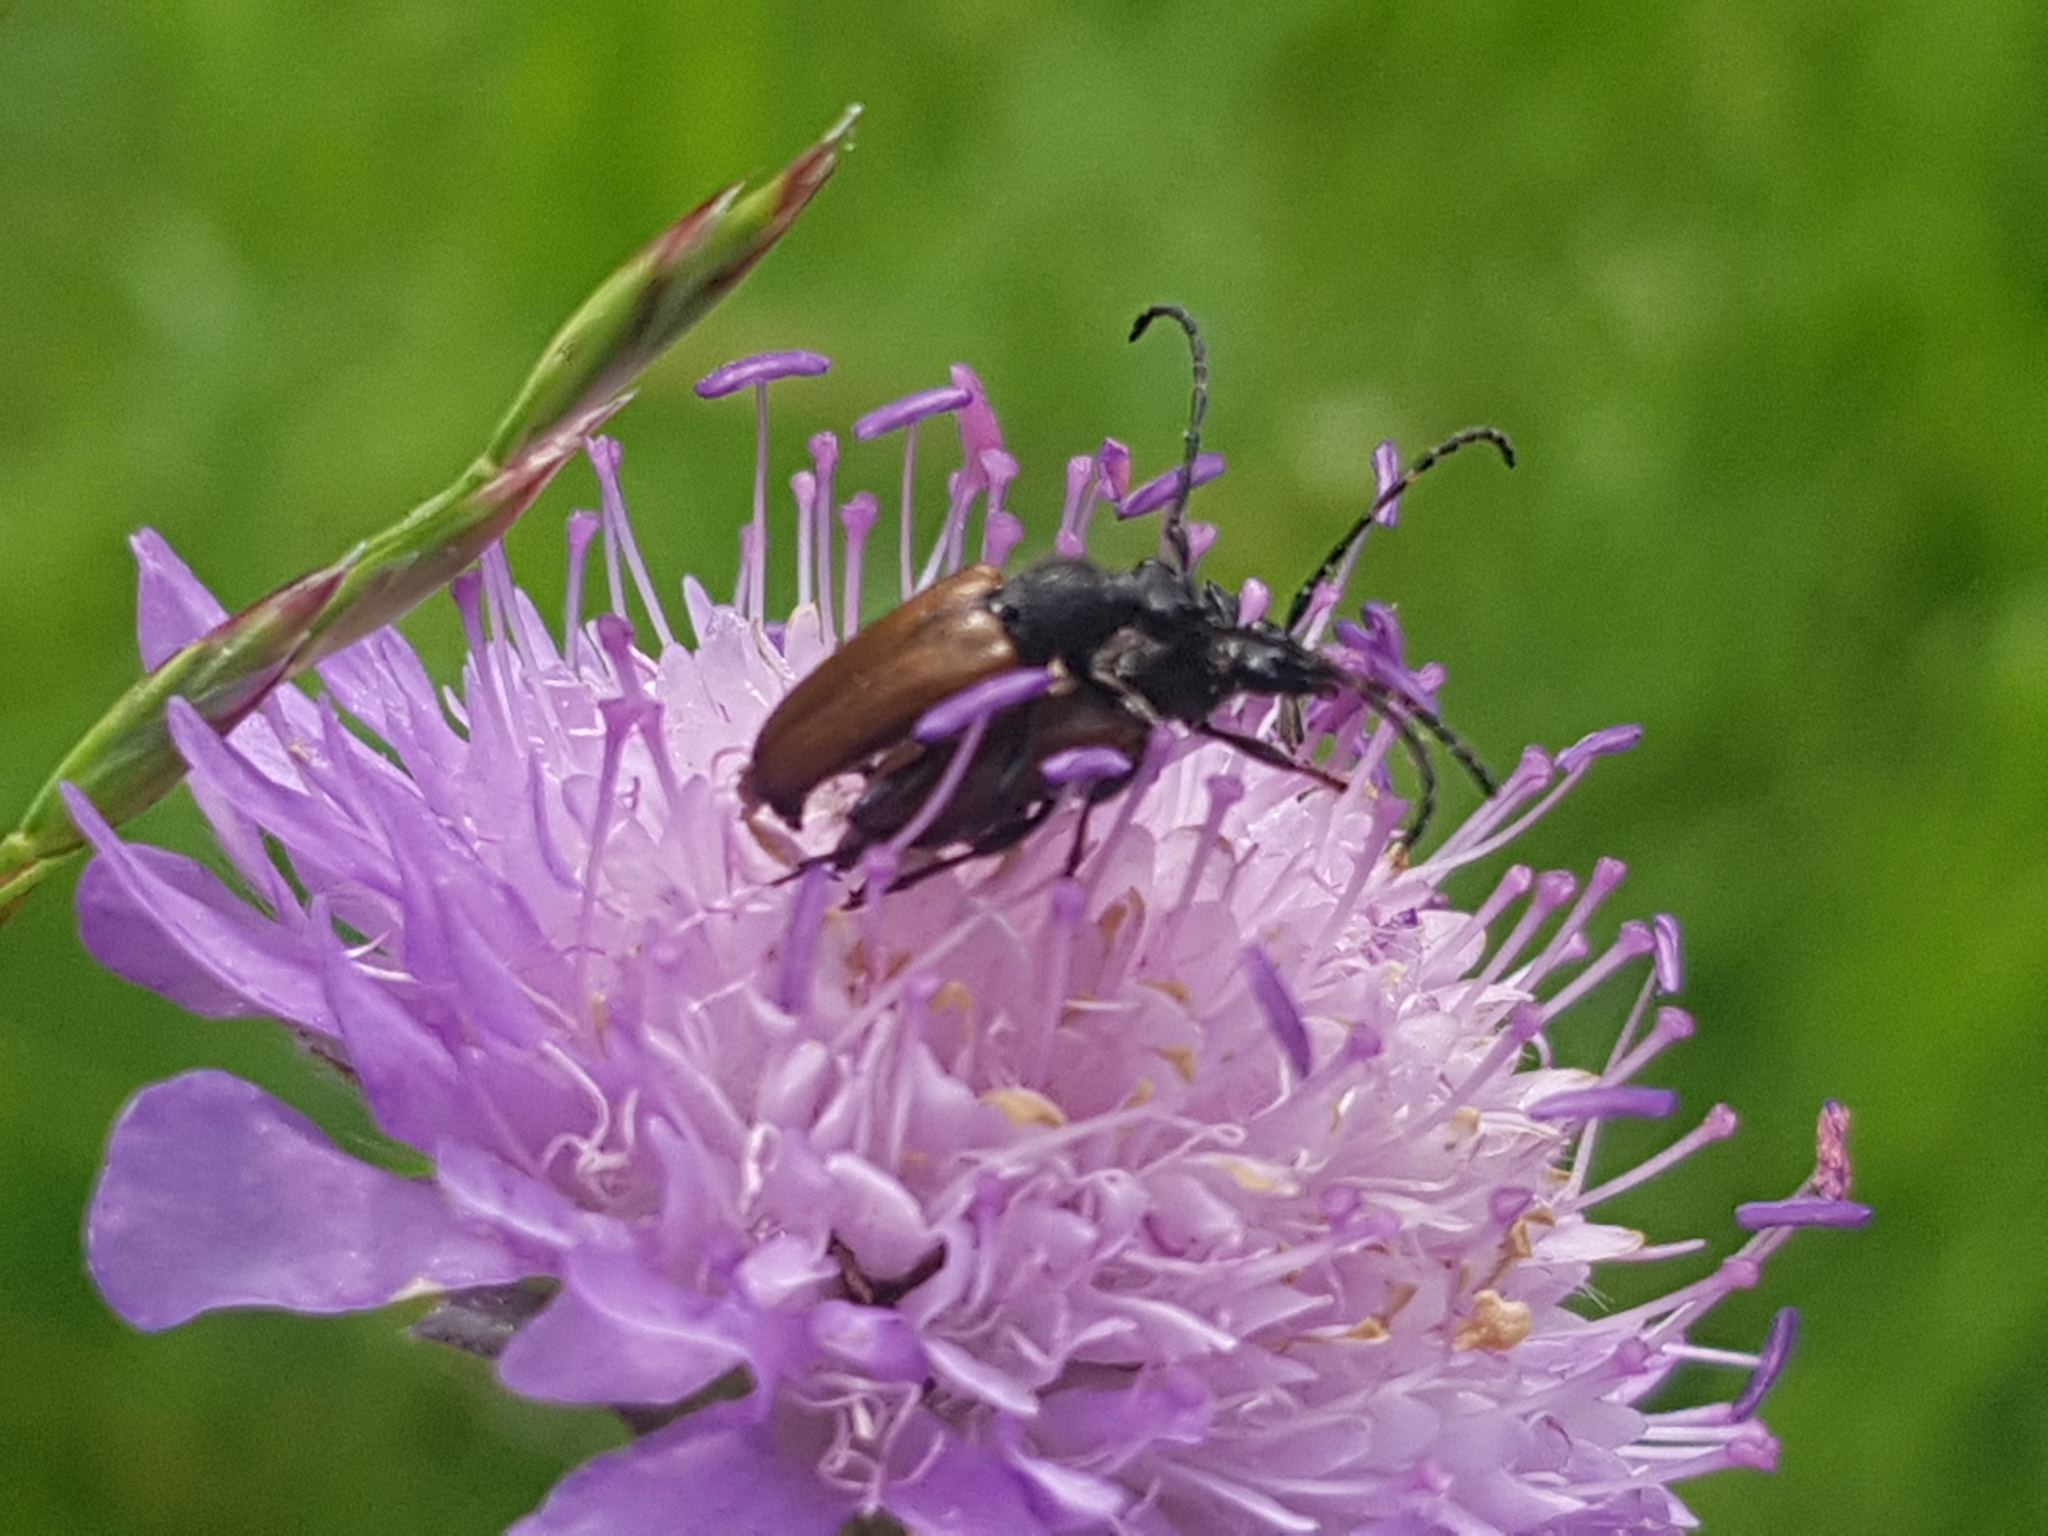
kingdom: Animalia
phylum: Arthropoda
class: Insecta
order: Coleoptera
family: Cerambycidae
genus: Paracorymbia
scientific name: Paracorymbia maculicornis
